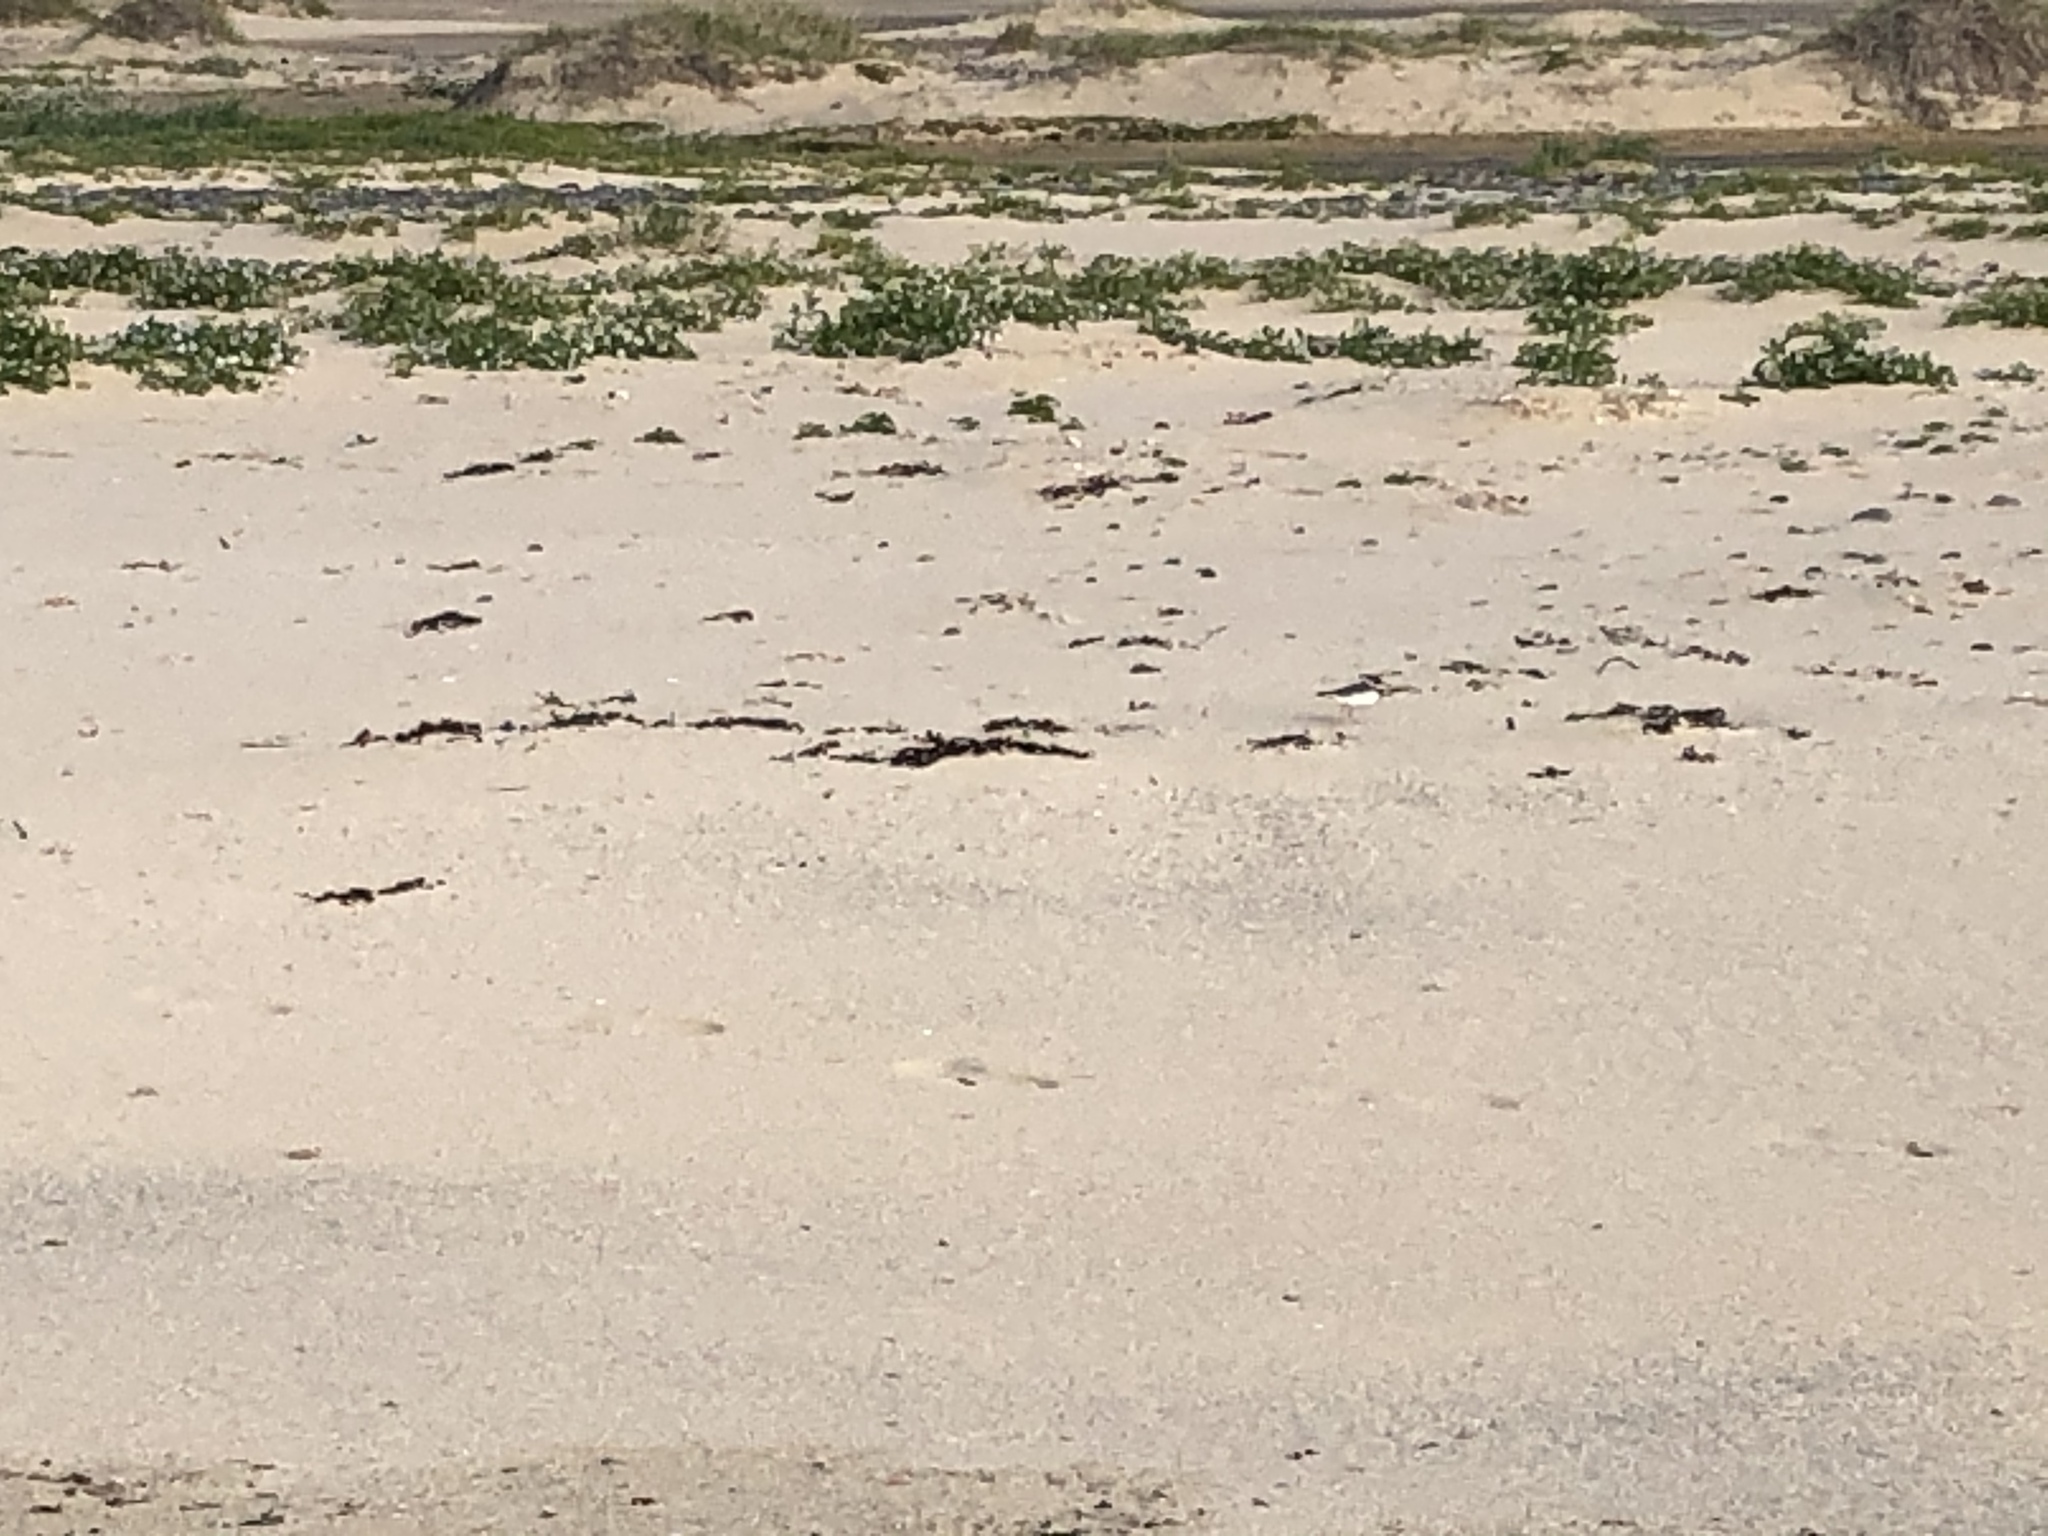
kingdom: Animalia
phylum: Chordata
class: Aves
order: Charadriiformes
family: Charadriidae
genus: Charadrius
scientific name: Charadrius hiaticula
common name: Common ringed plover
